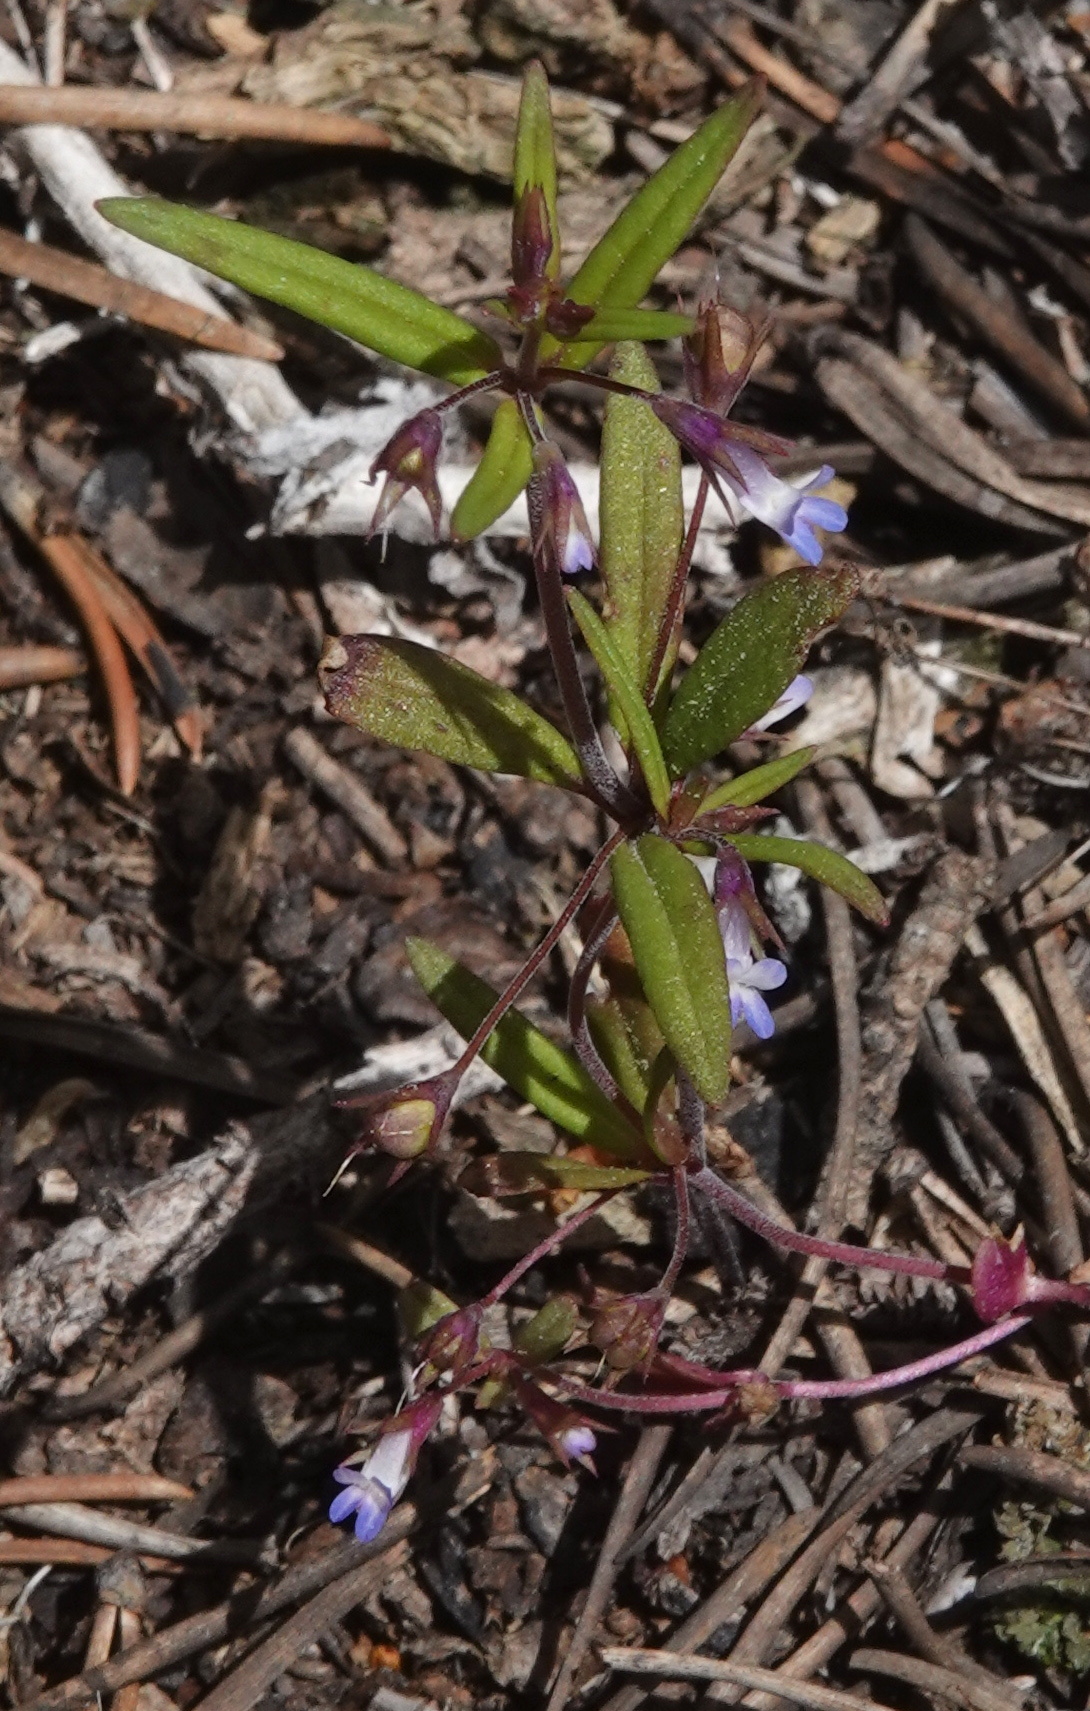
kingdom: Plantae
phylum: Tracheophyta
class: Magnoliopsida
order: Lamiales
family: Plantaginaceae
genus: Collinsia
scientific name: Collinsia parviflora
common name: Blue-lips
